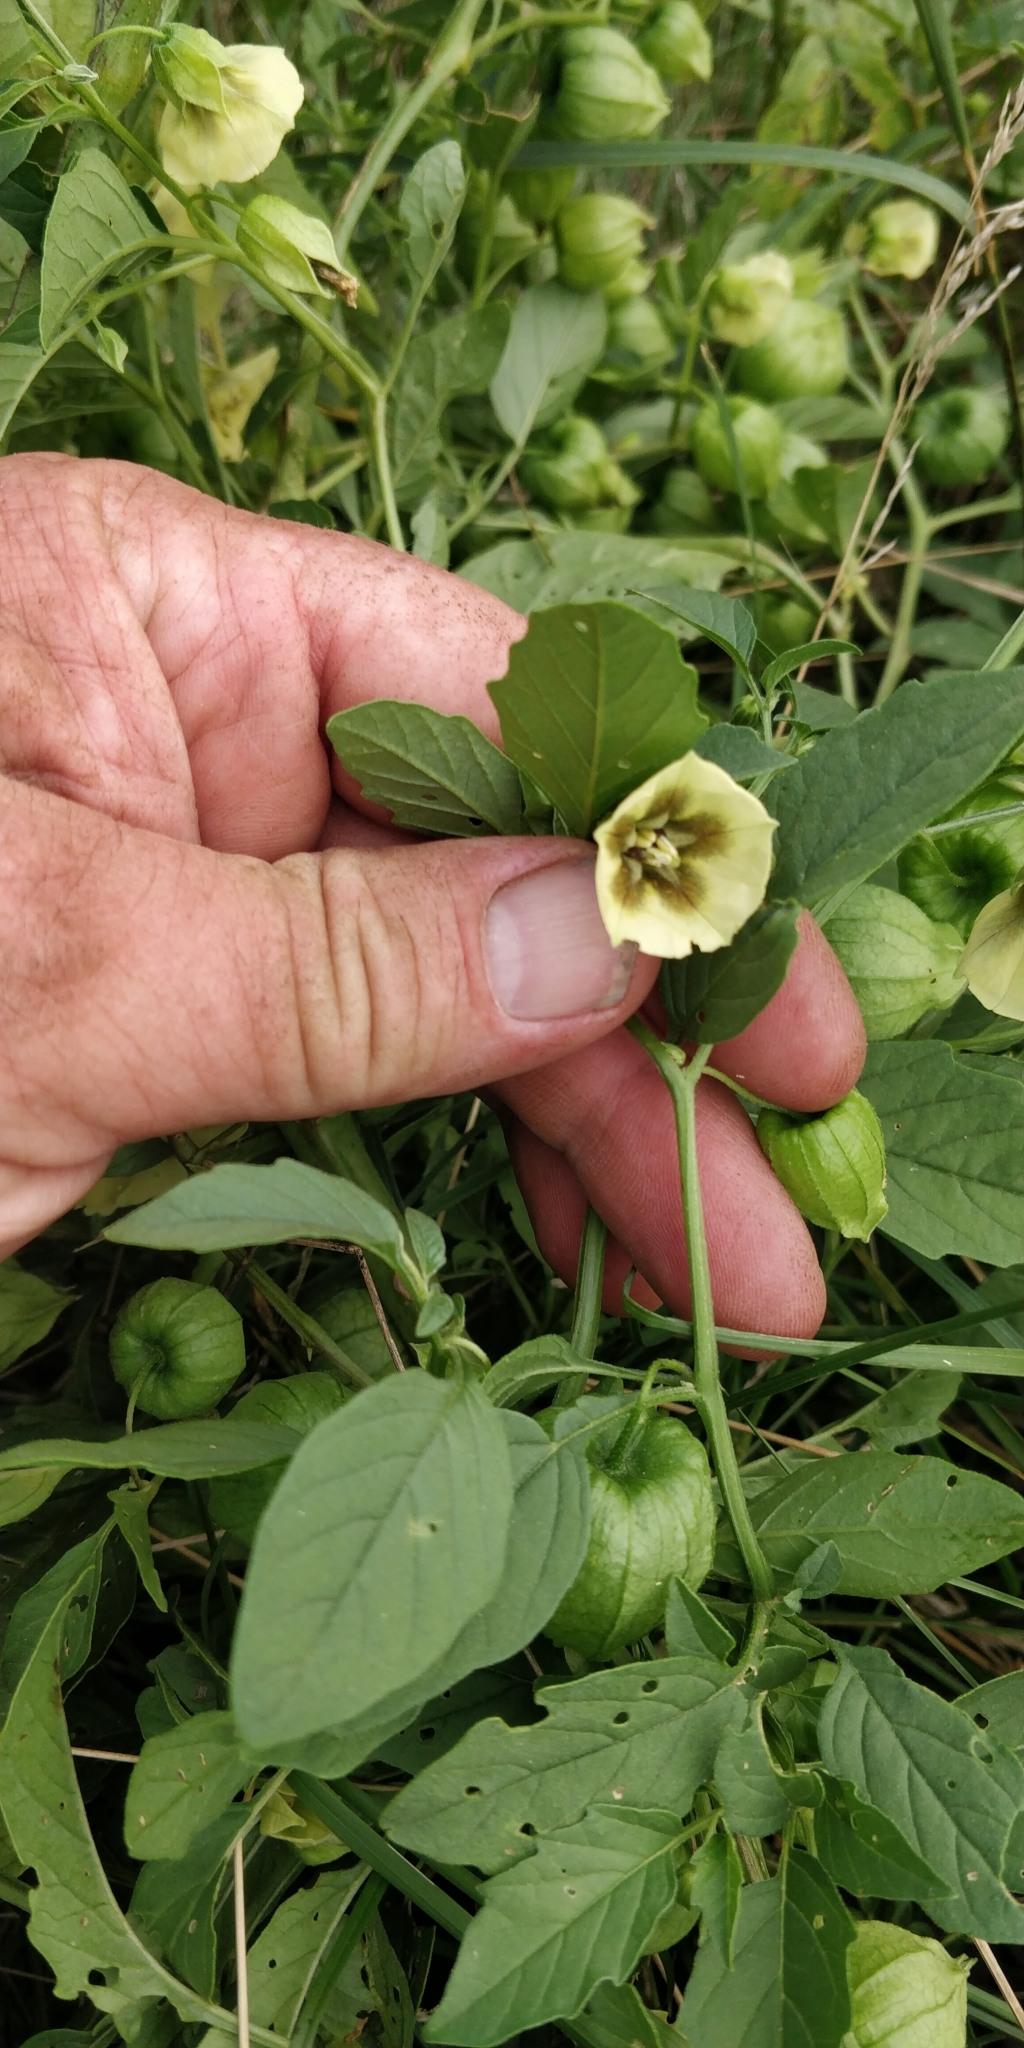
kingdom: Plantae
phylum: Tracheophyta
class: Magnoliopsida
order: Solanales
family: Solanaceae
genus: Physalis
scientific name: Physalis longifolia
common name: Common ground-cherry
